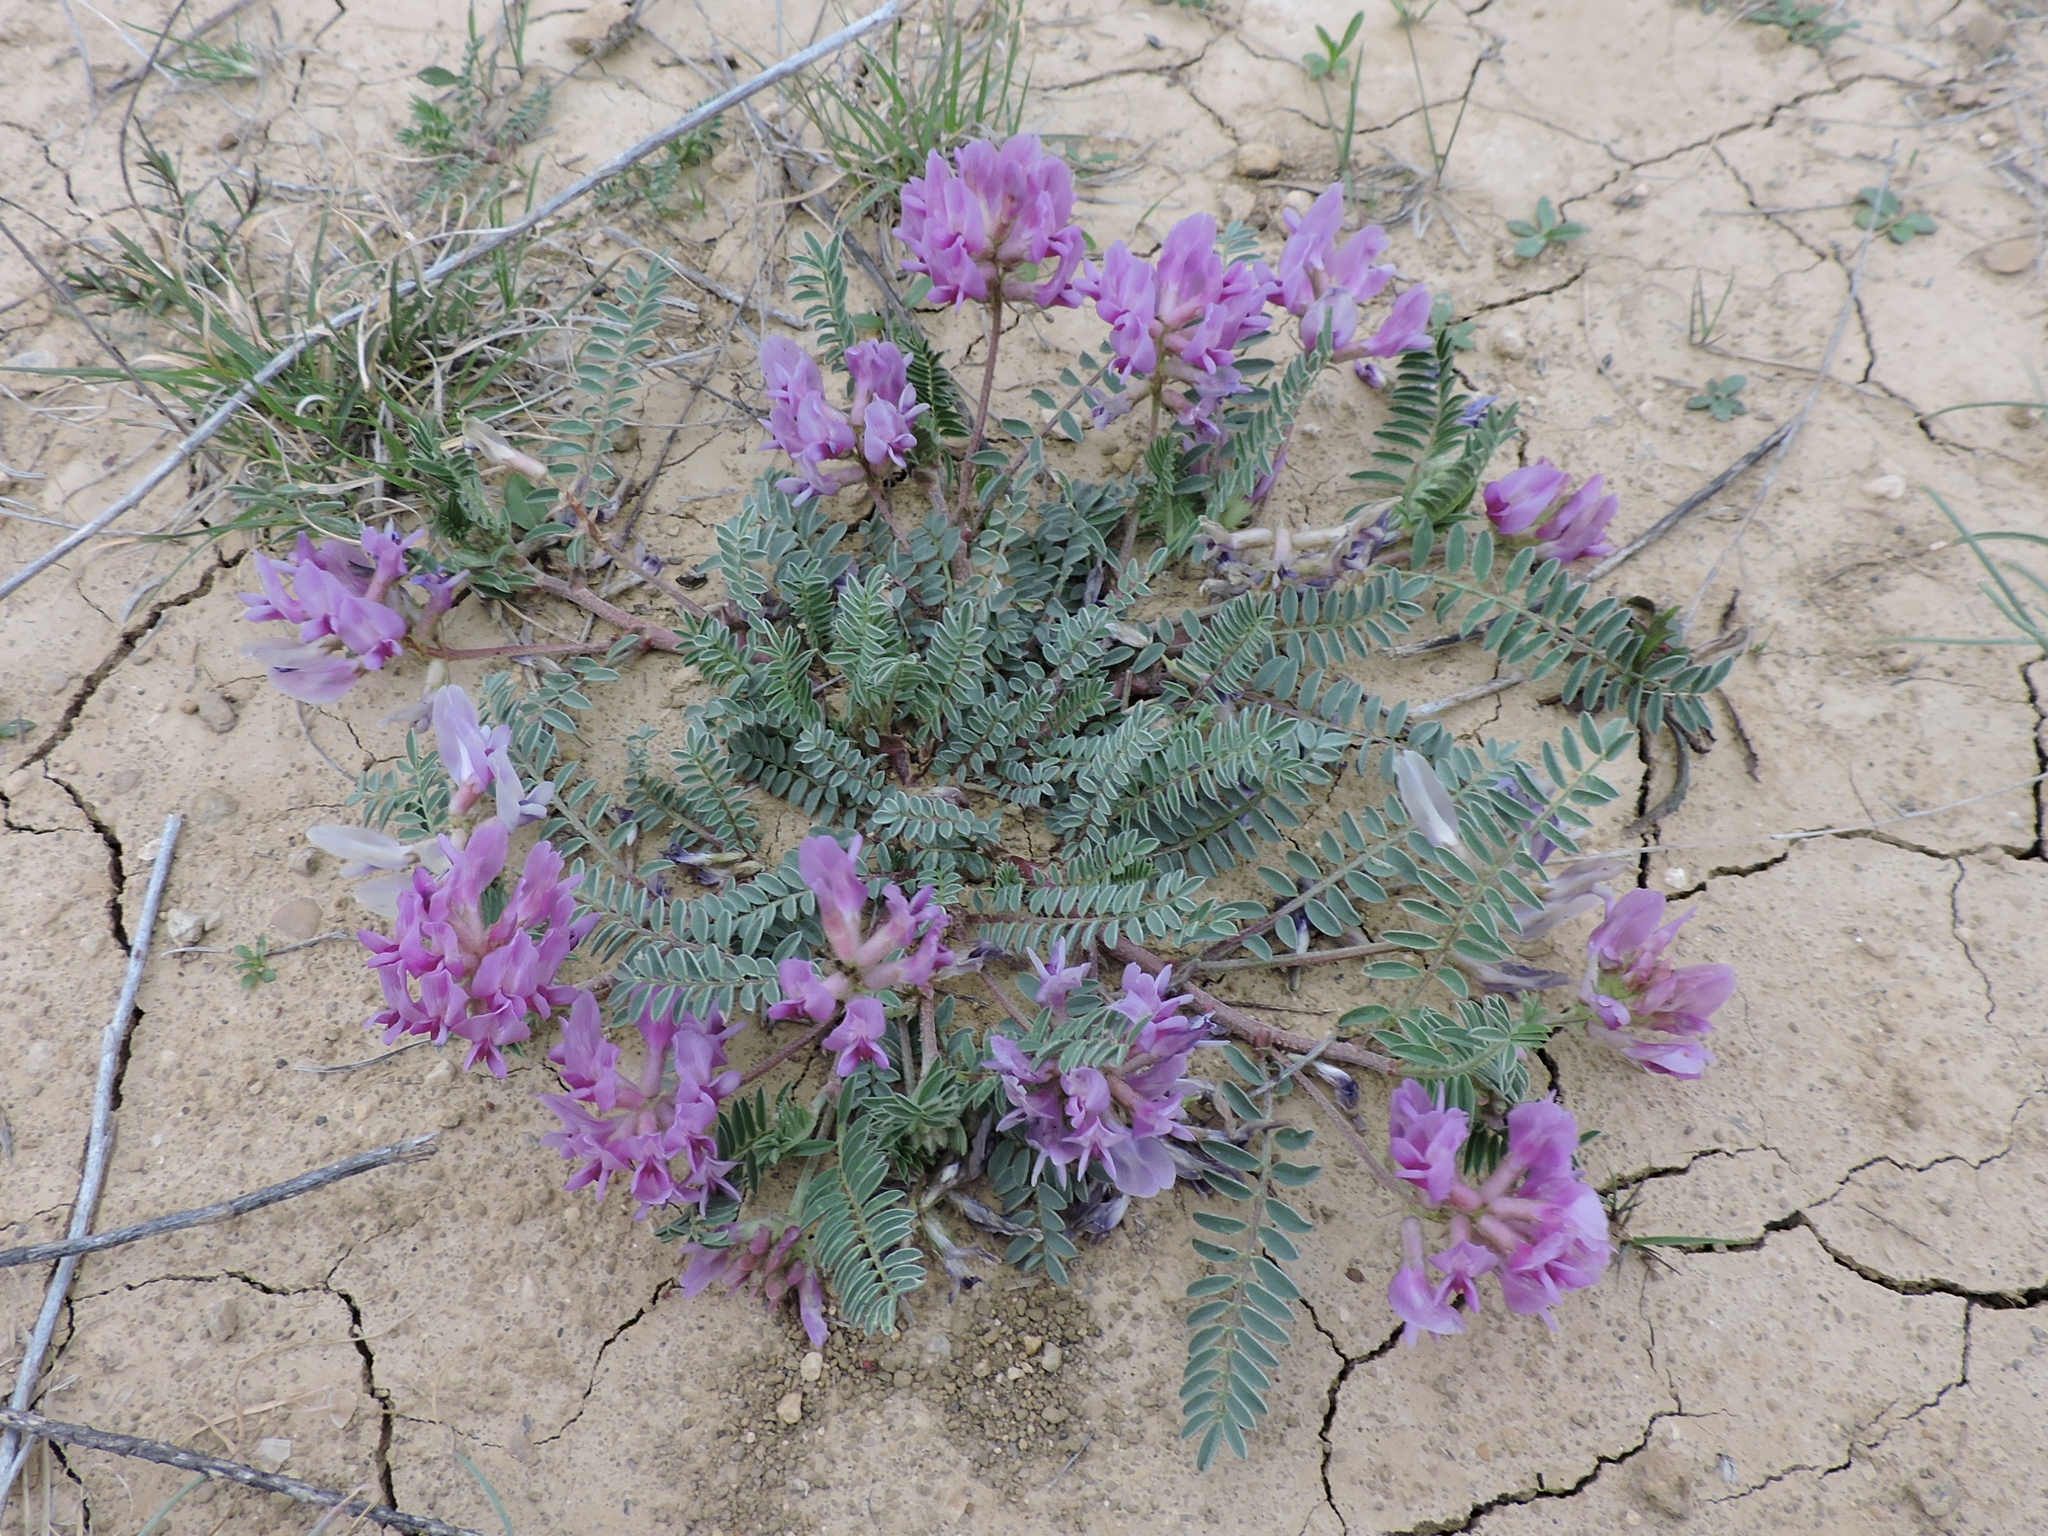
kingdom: Plantae
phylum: Tracheophyta
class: Magnoliopsida
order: Fabales
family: Fabaceae
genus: Astragalus
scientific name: Astragalus crassicarpus
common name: Ground-plum milk-vetch
